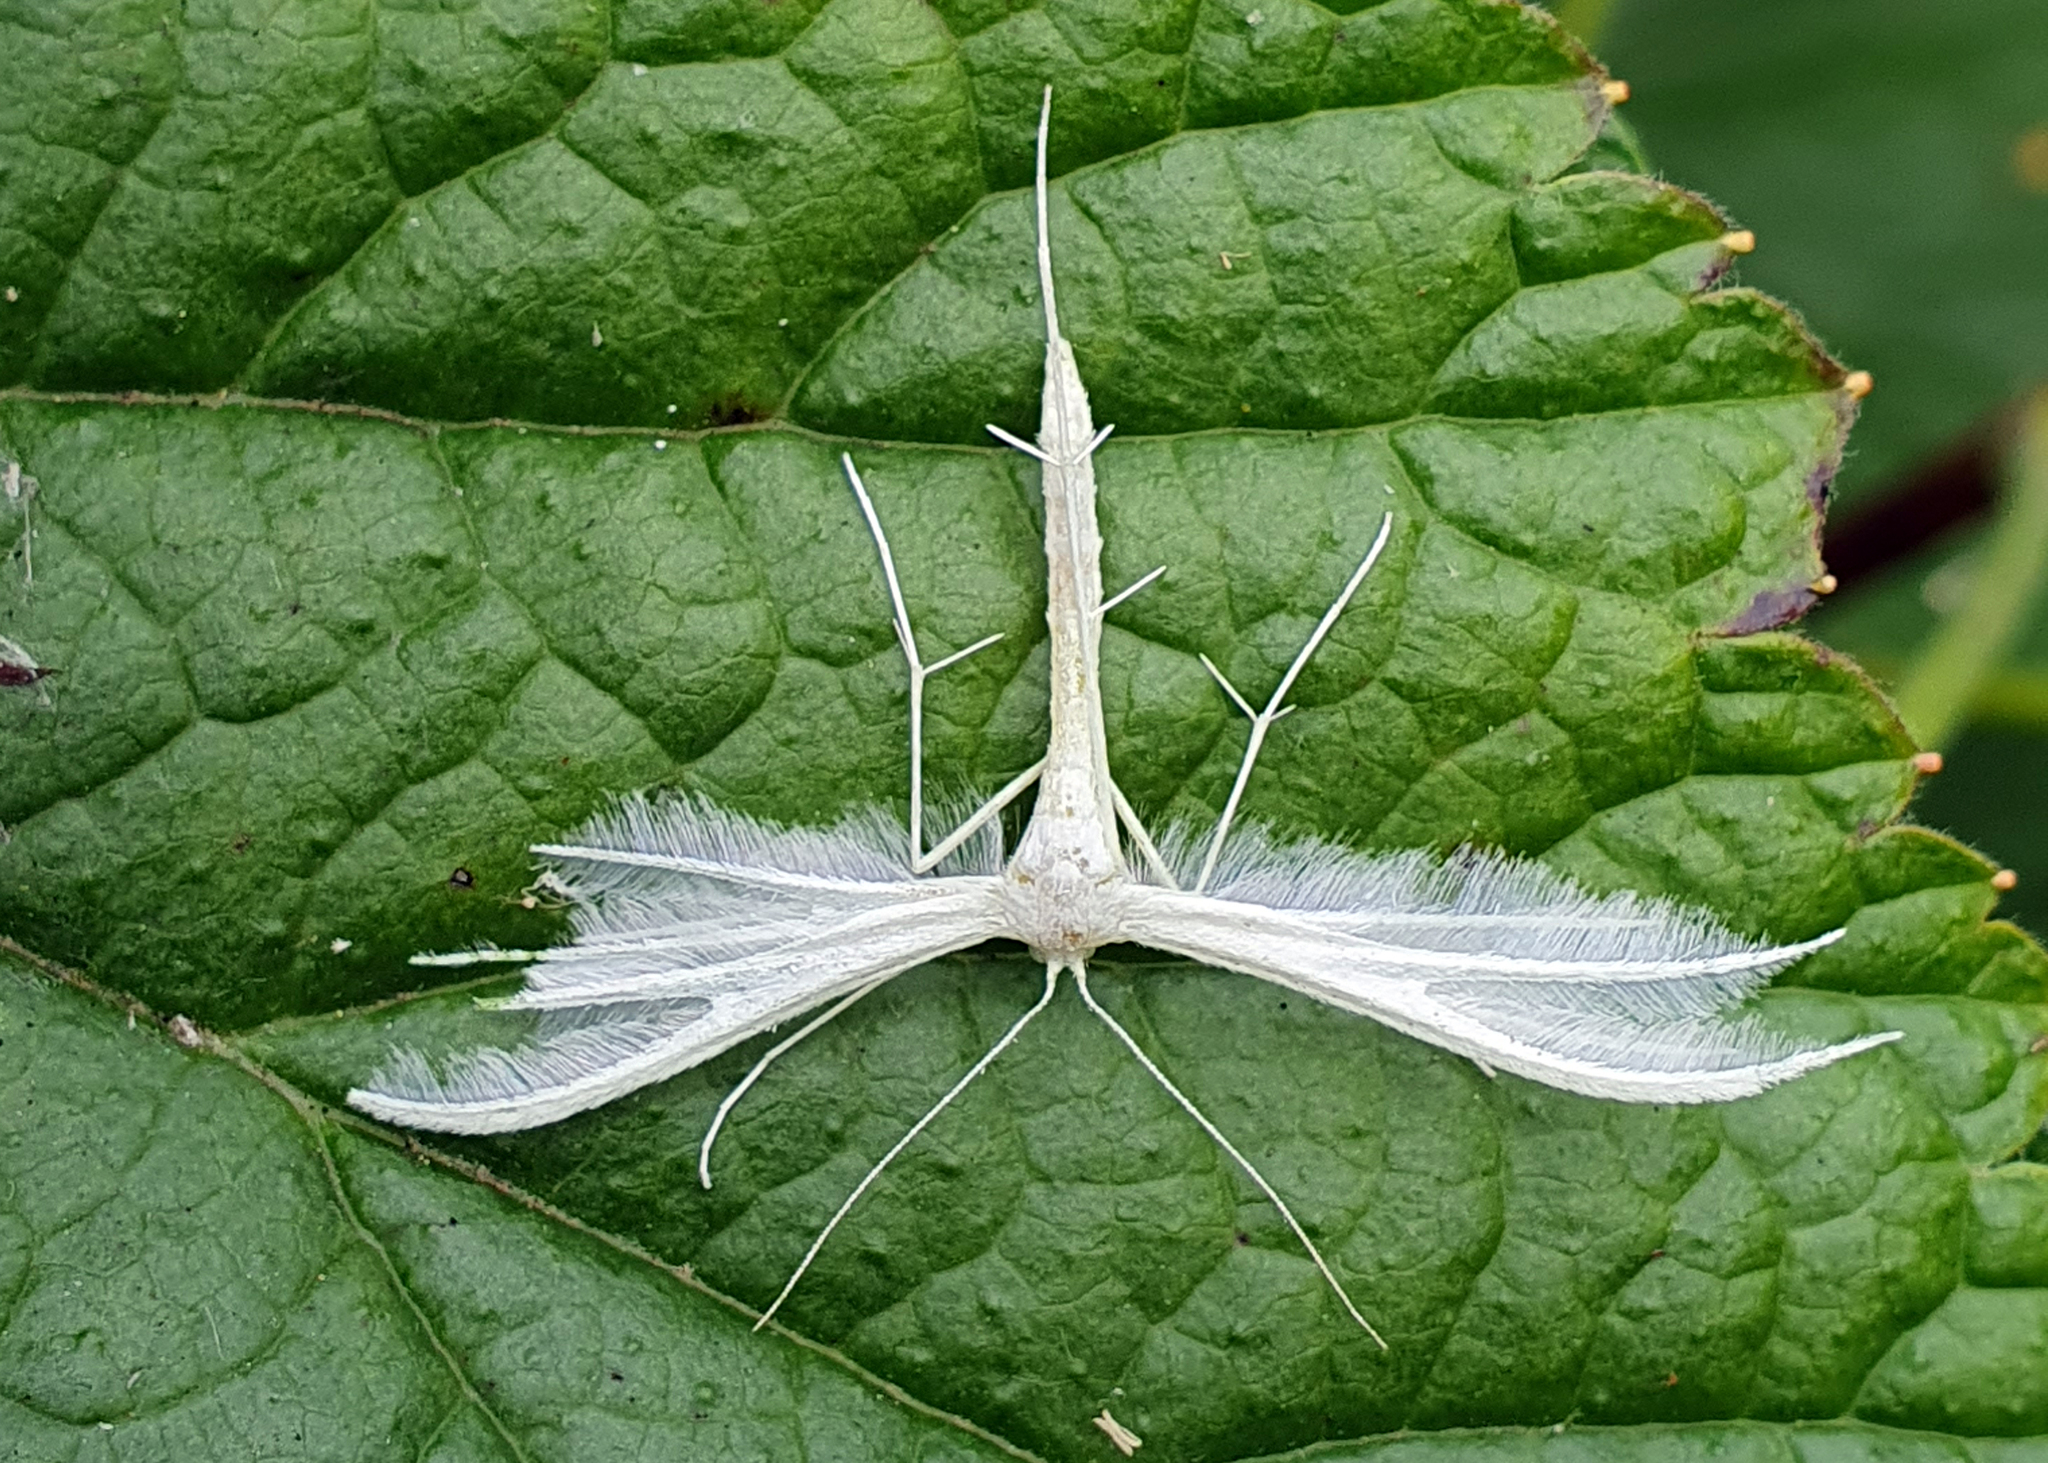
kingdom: Animalia
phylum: Arthropoda
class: Insecta
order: Lepidoptera
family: Pterophoridae
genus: Pterophorus
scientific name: Pterophorus pentadactyla
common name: White plume moth
